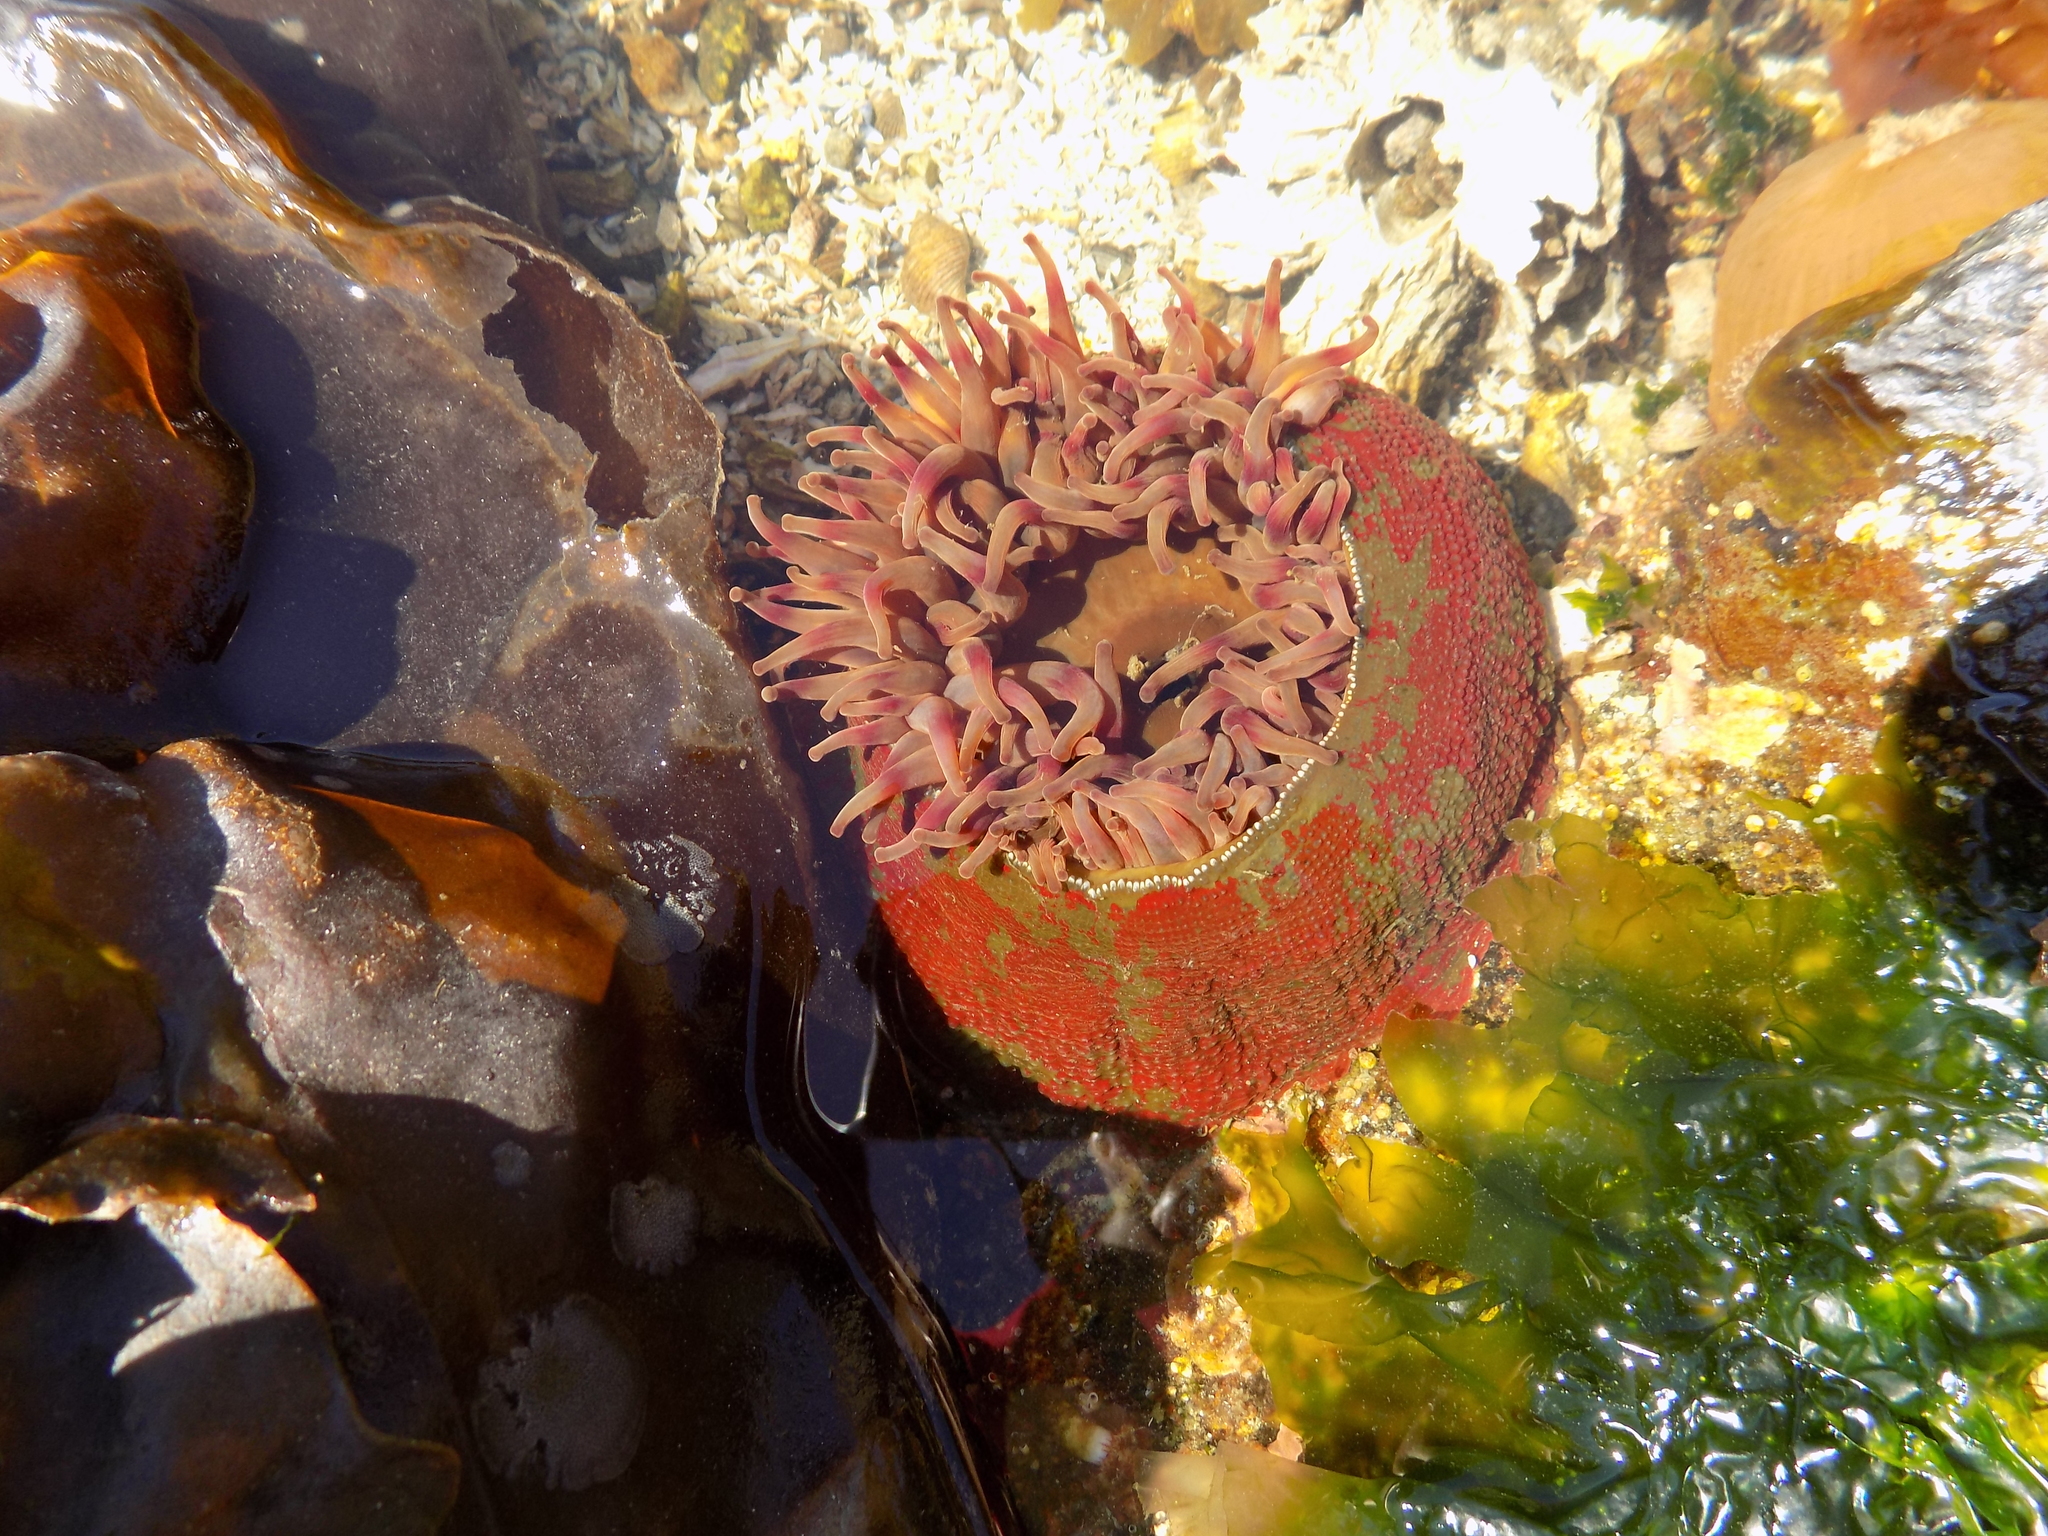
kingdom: Animalia
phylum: Cnidaria
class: Anthozoa
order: Actiniaria
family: Actiniidae
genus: Urticina
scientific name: Urticina grebelnyi
